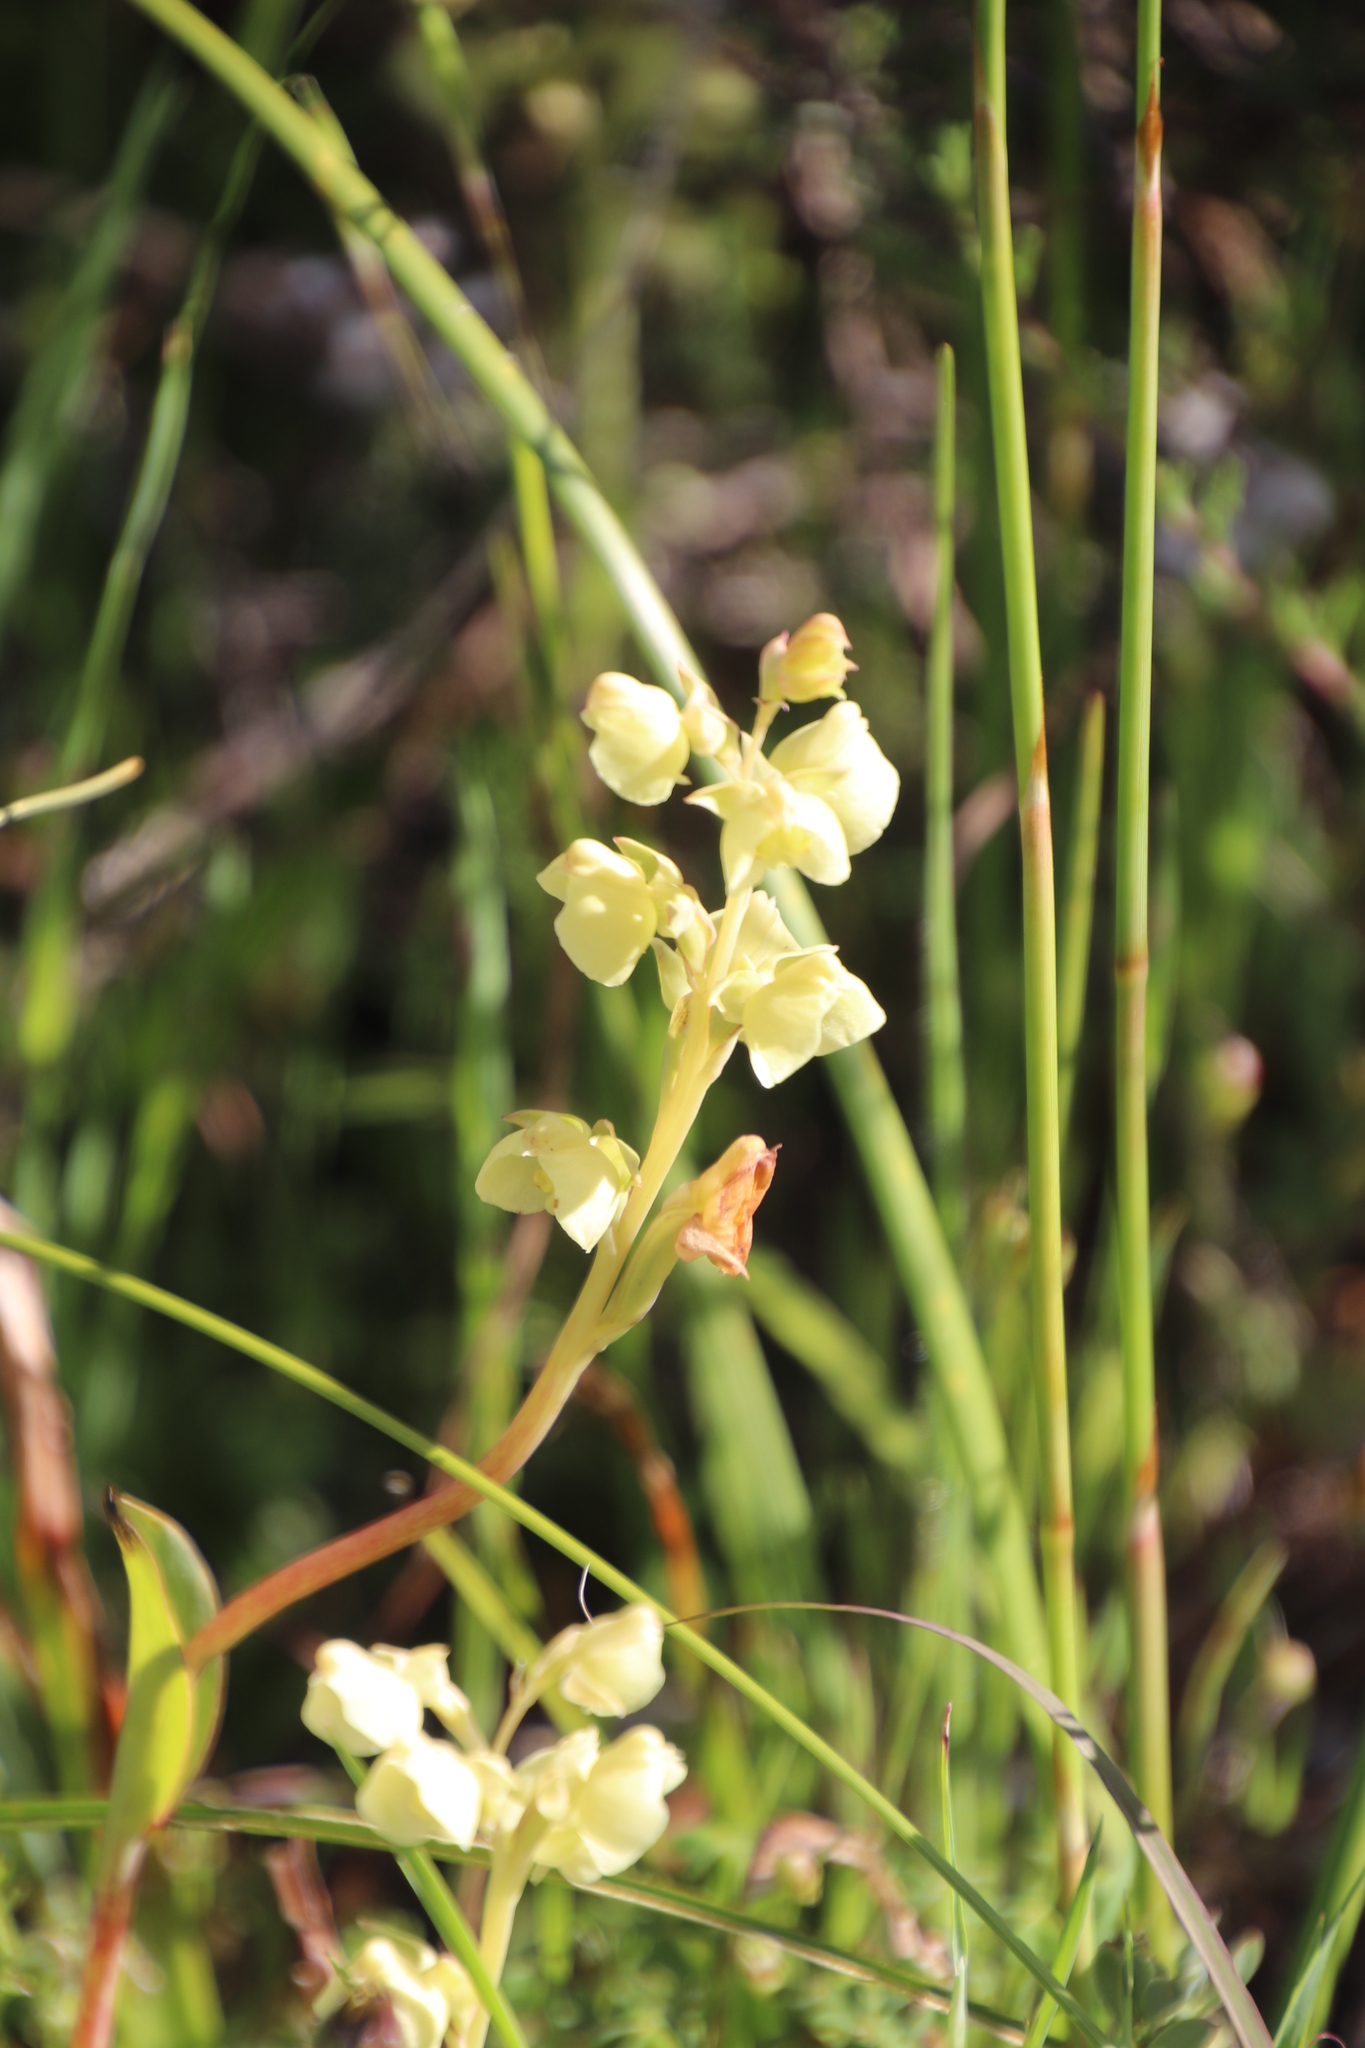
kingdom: Plantae
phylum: Tracheophyta
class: Liliopsida
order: Asparagales
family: Orchidaceae
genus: Pterygodium
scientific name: Pterygodium catholicum
